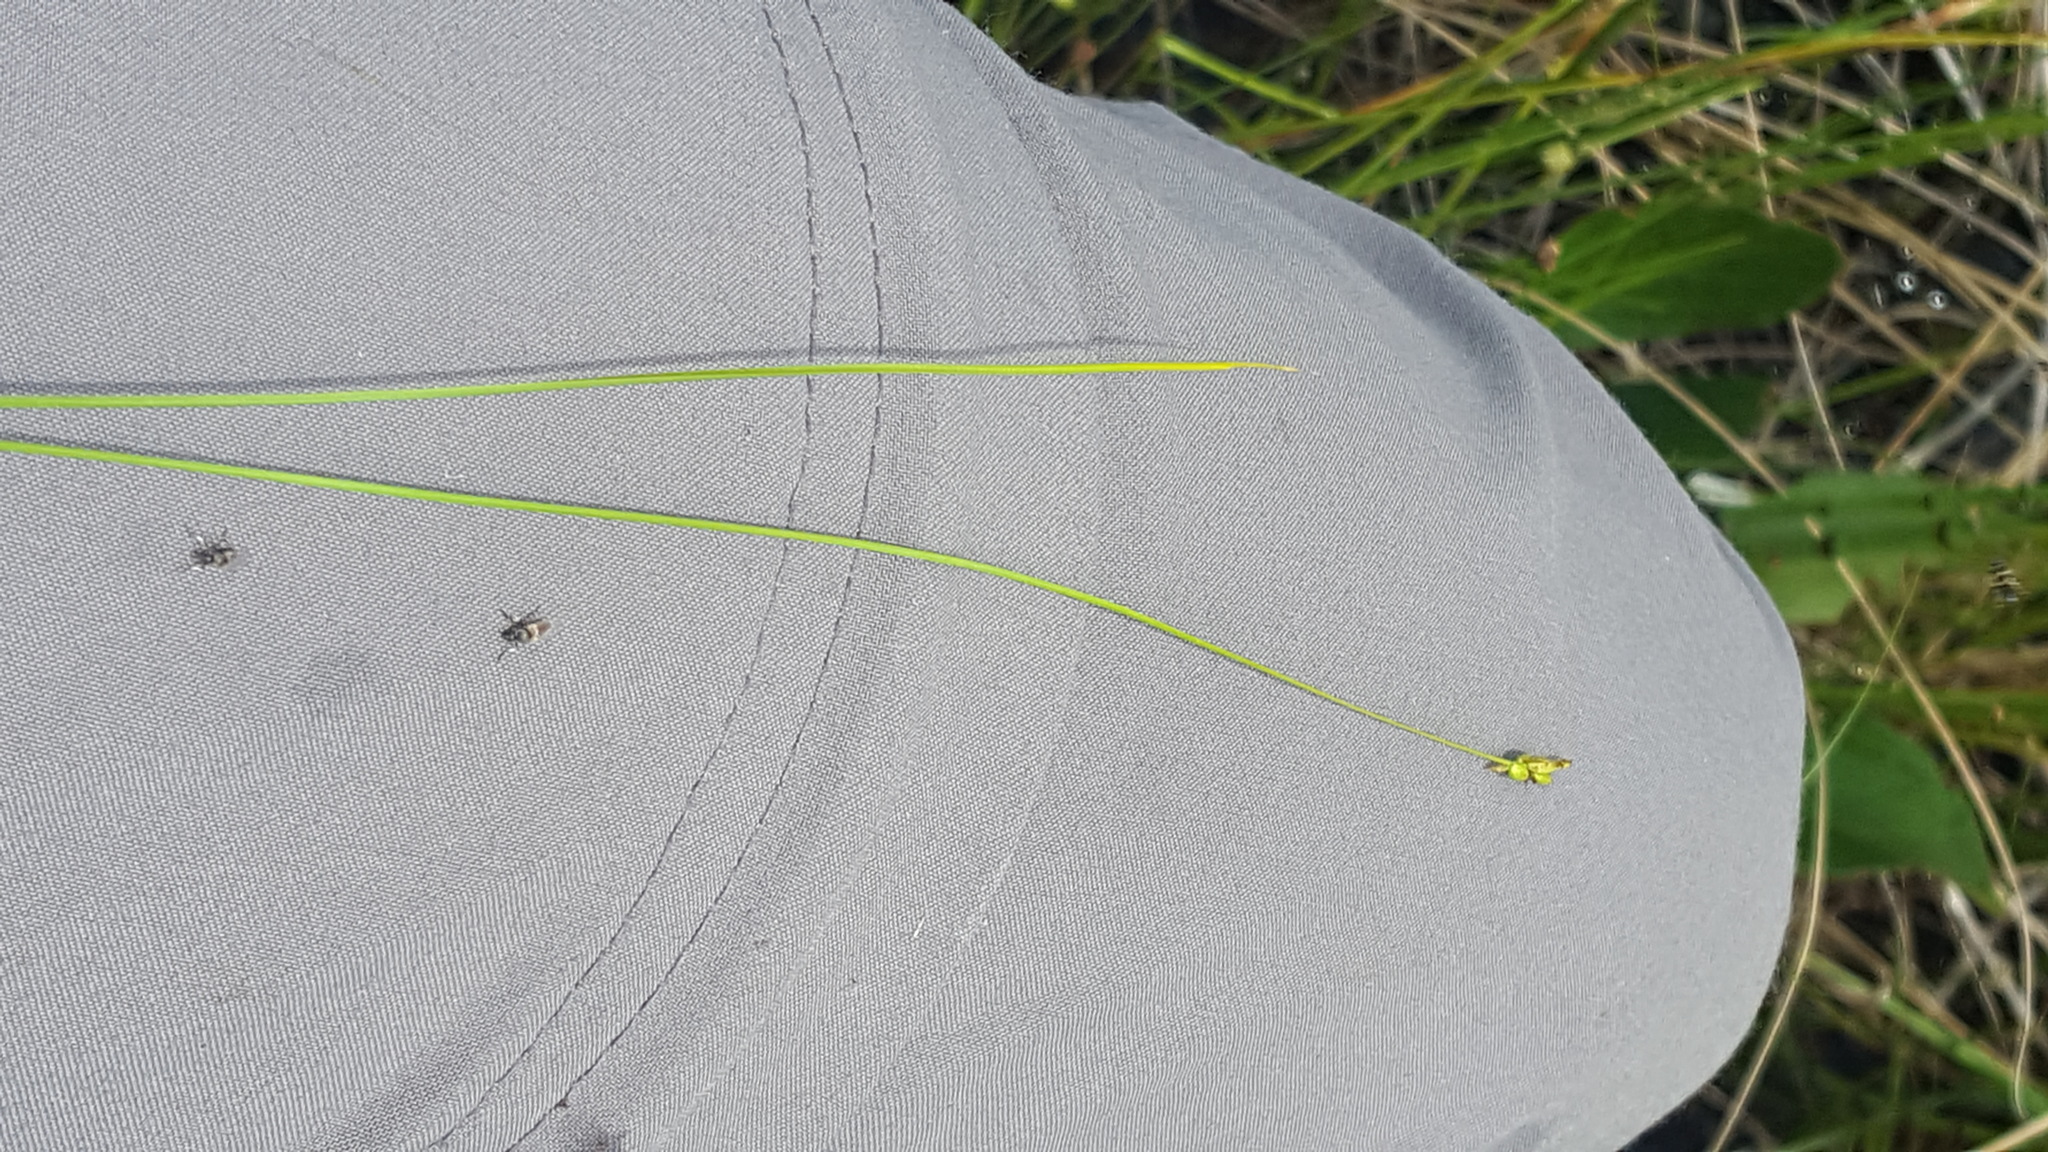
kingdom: Plantae
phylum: Tracheophyta
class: Liliopsida
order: Poales
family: Cyperaceae
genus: Carex
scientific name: Carex leptalea
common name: Bristly-stalked sedge
